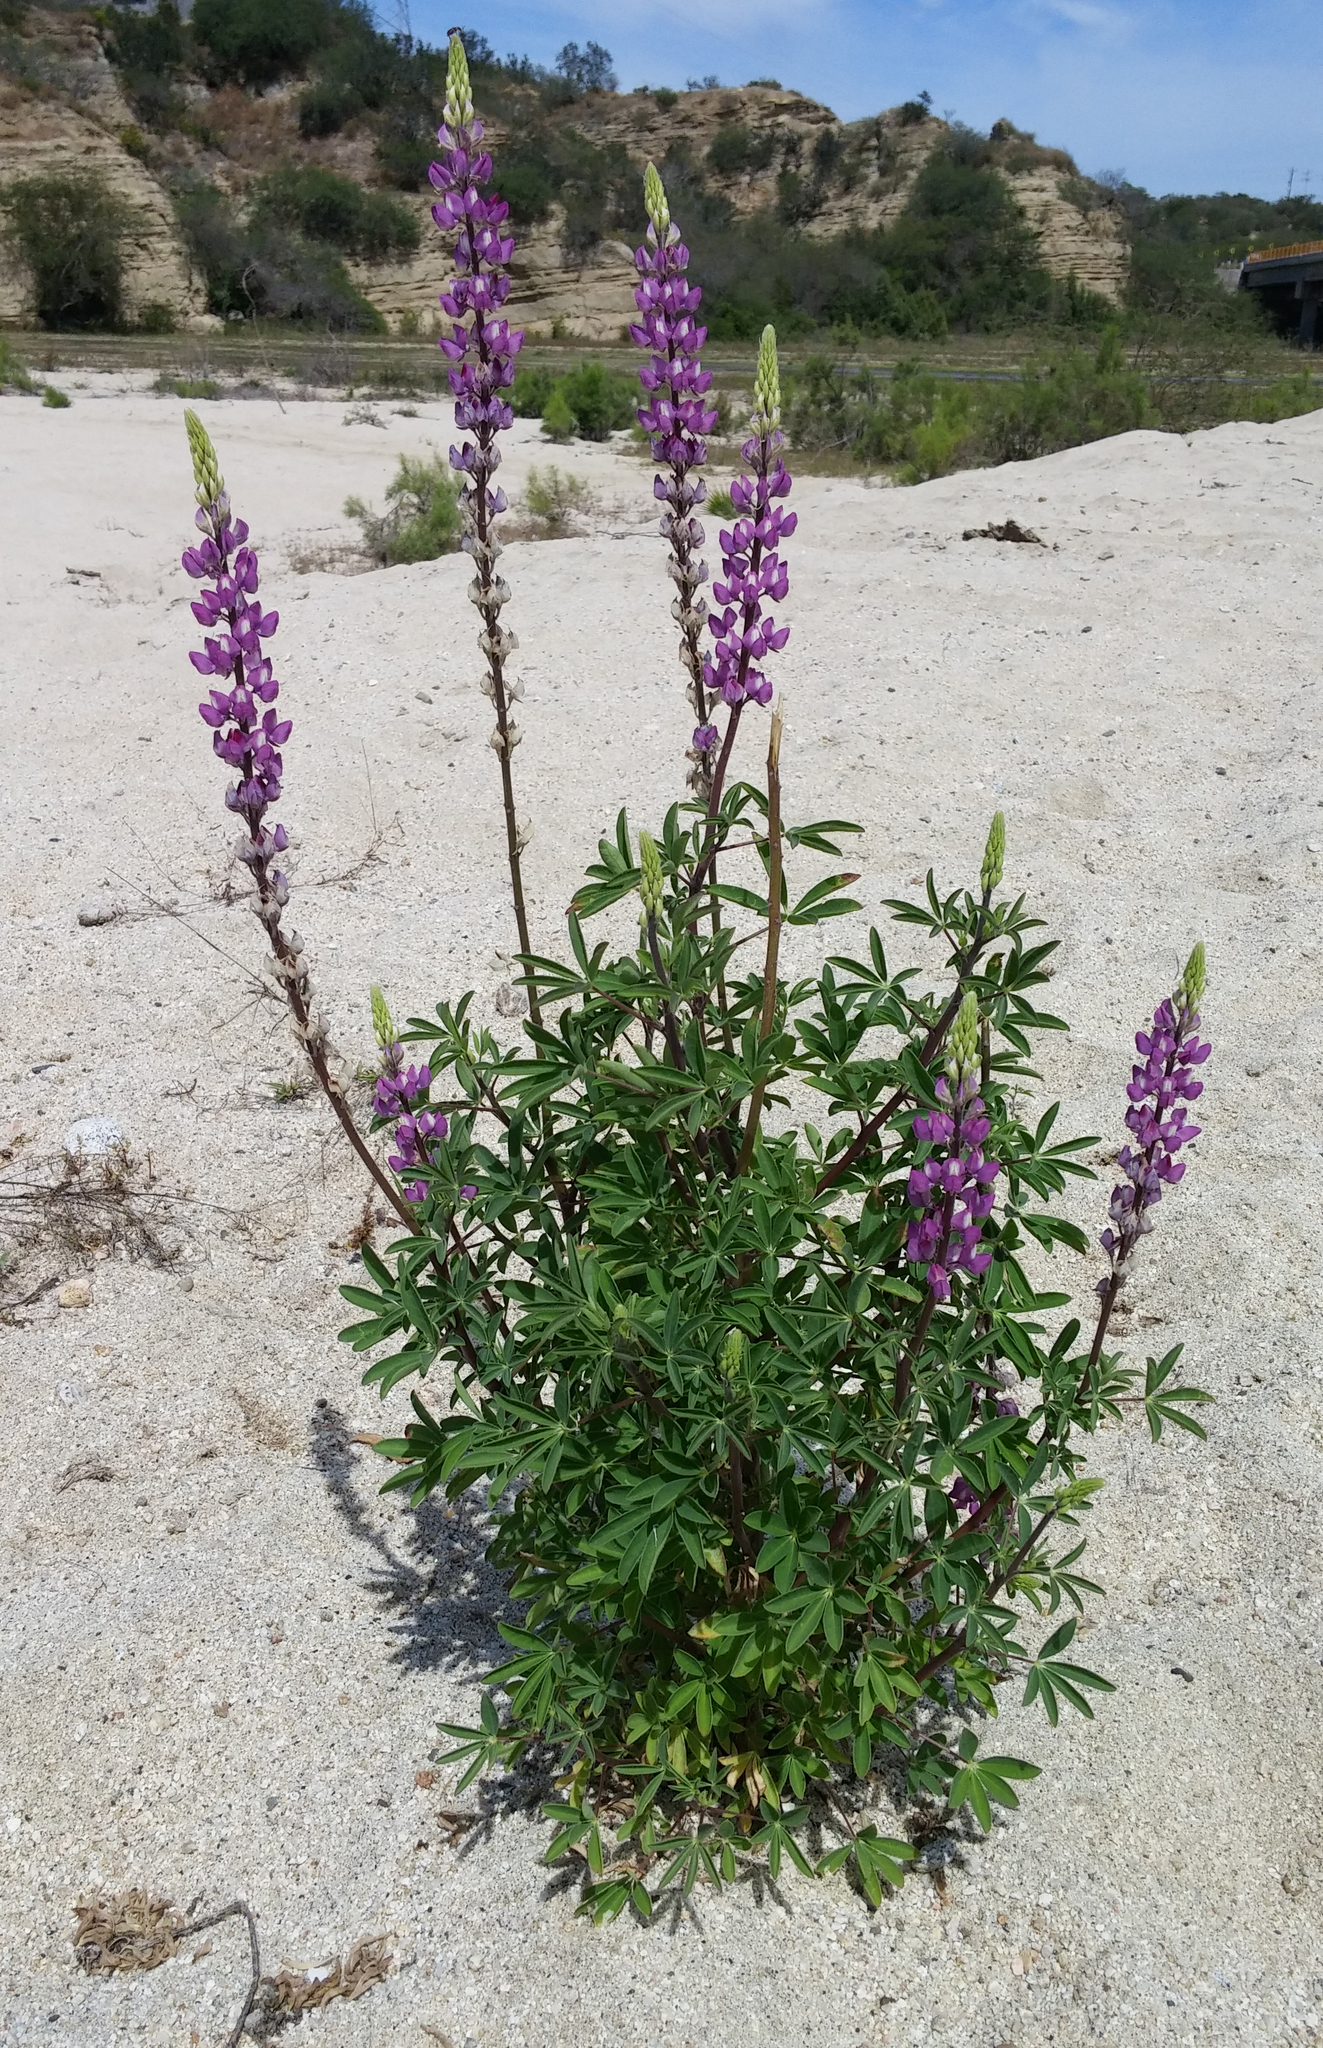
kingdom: Plantae
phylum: Tracheophyta
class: Magnoliopsida
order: Fabales
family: Fabaceae
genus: Lupinus
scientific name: Lupinus arizonicus
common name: Arizona lupine
